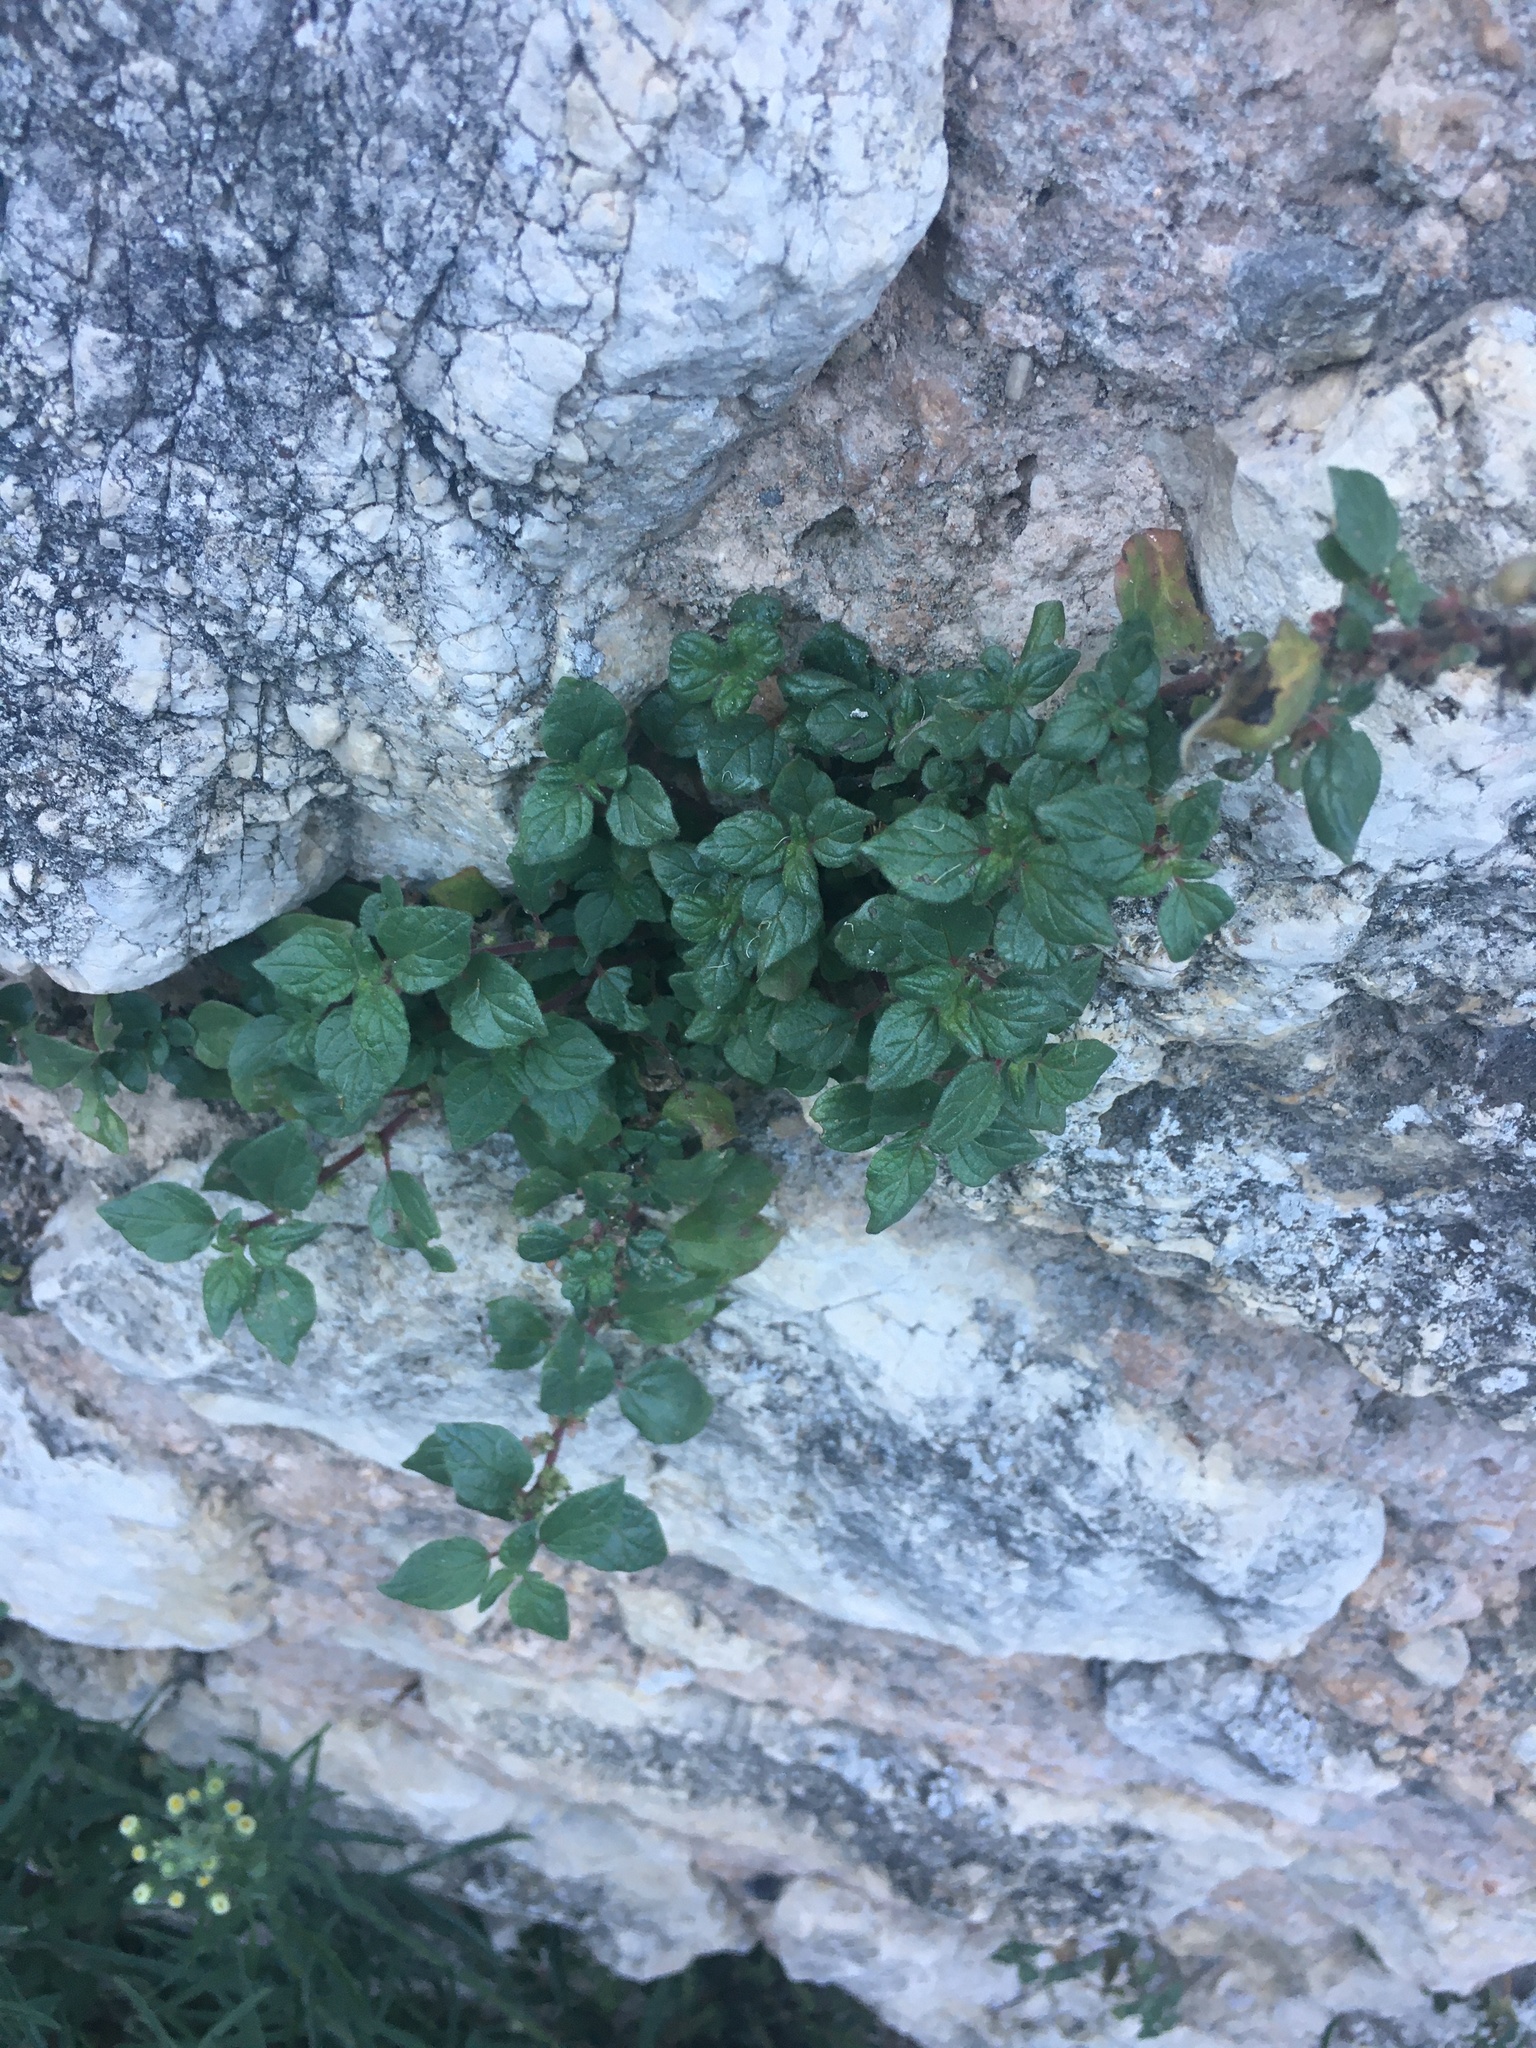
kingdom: Plantae
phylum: Tracheophyta
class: Magnoliopsida
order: Rosales
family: Urticaceae
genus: Parietaria
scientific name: Parietaria judaica
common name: Pellitory-of-the-wall
